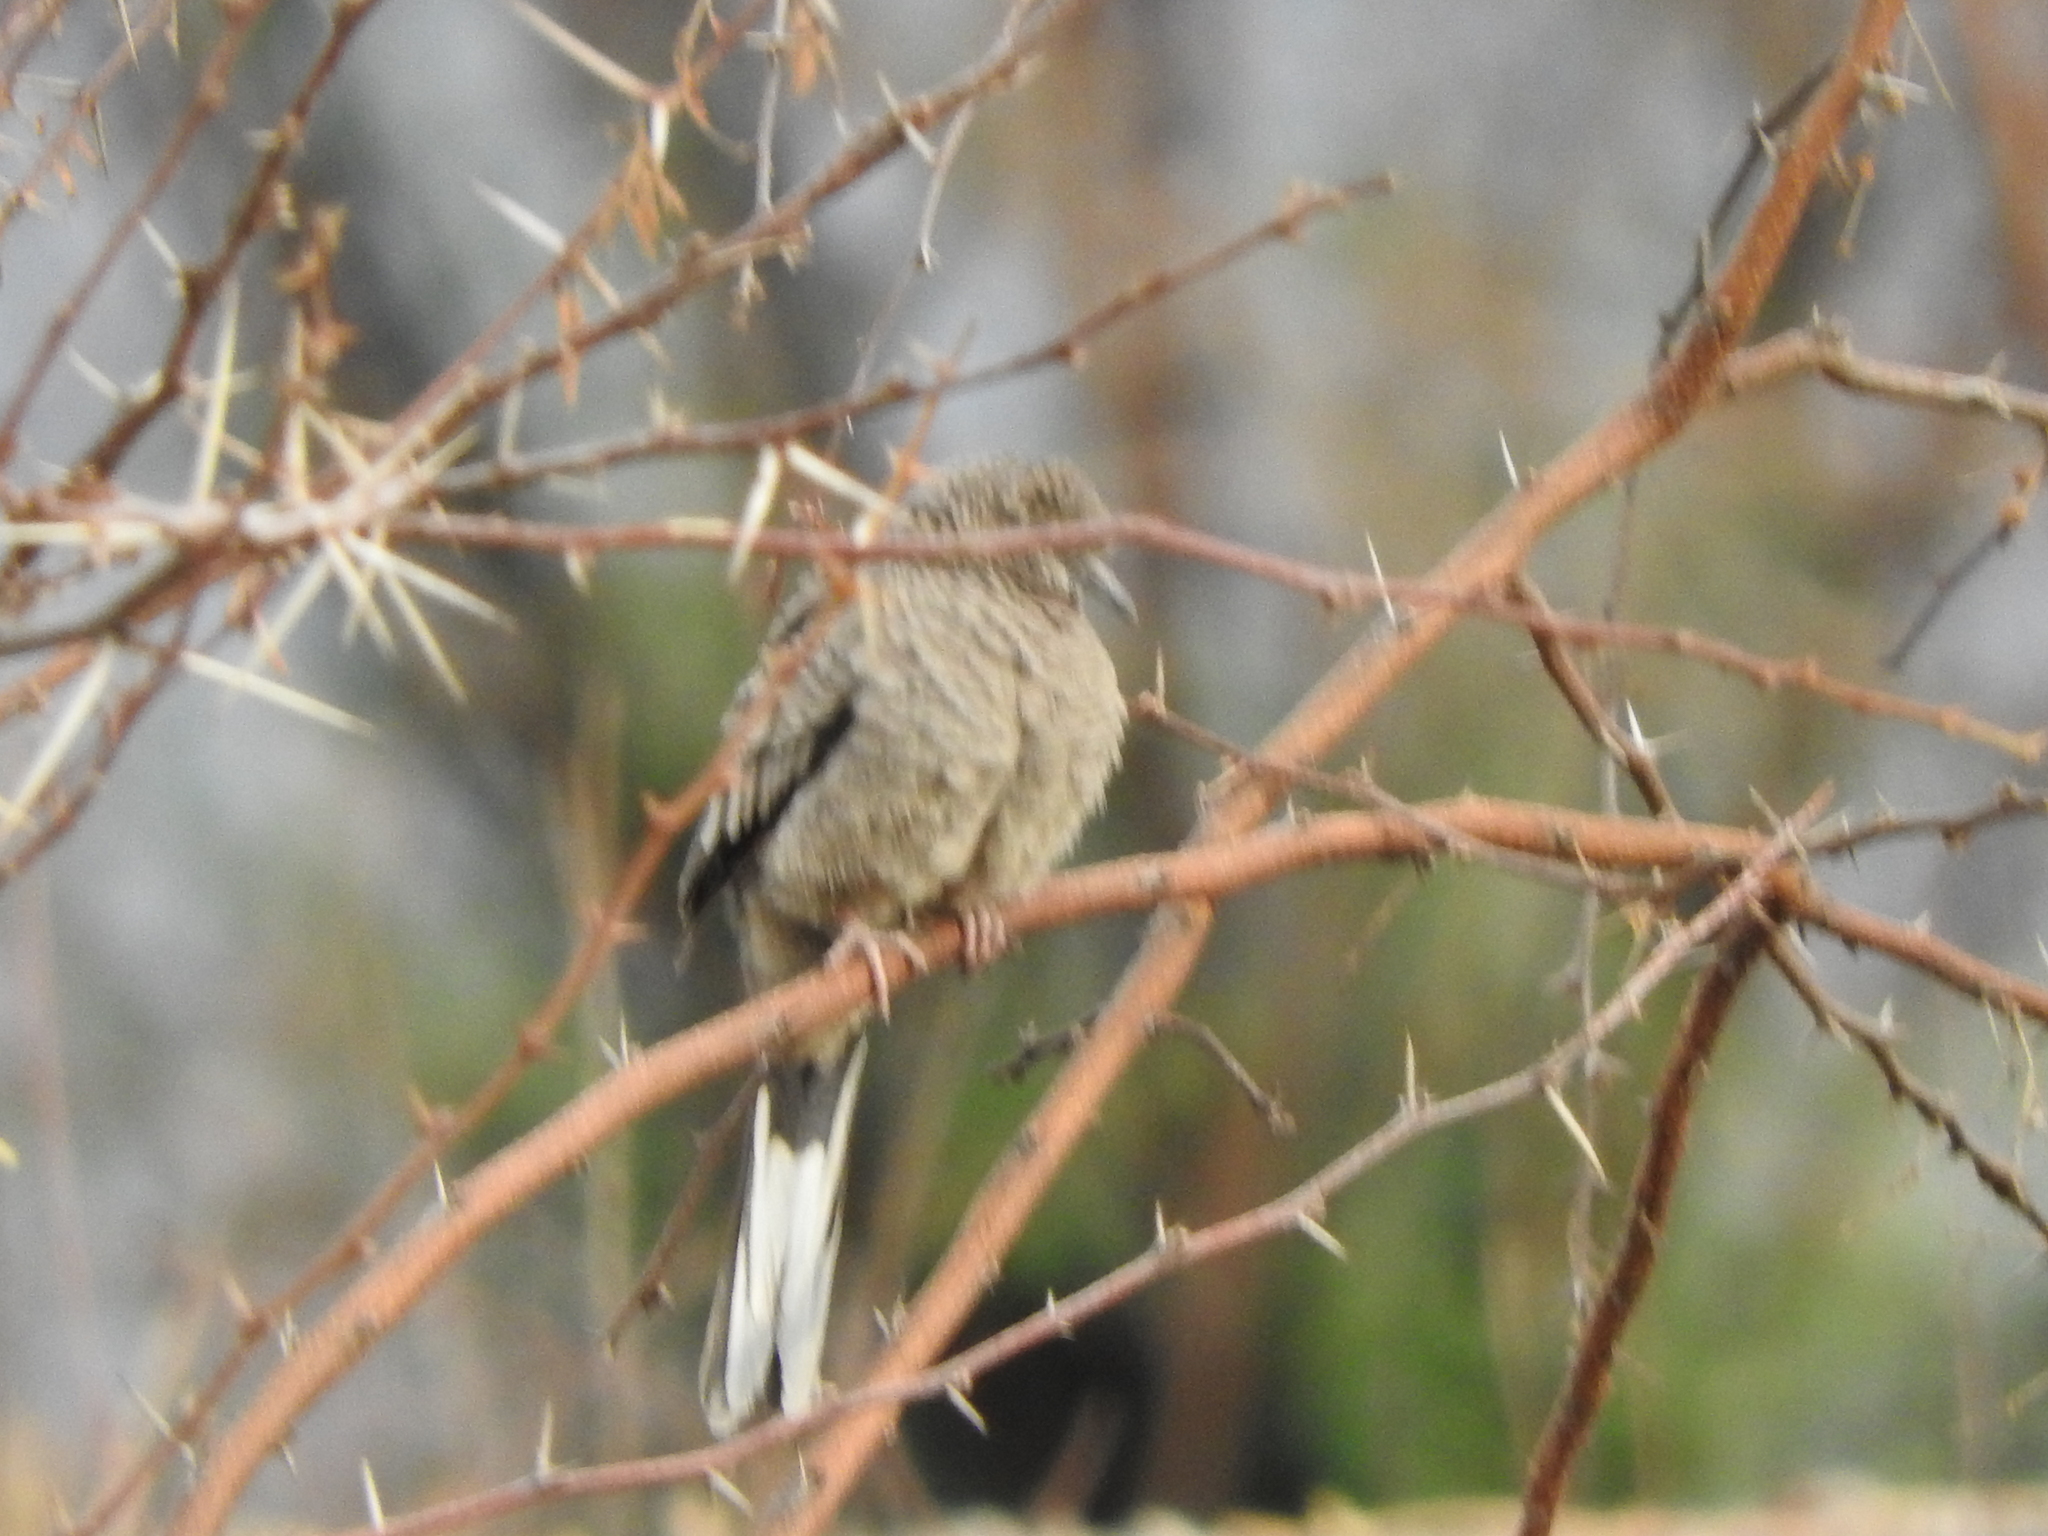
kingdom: Animalia
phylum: Chordata
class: Aves
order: Columbiformes
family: Columbidae
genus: Columbina
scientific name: Columbina inca
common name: Inca dove
